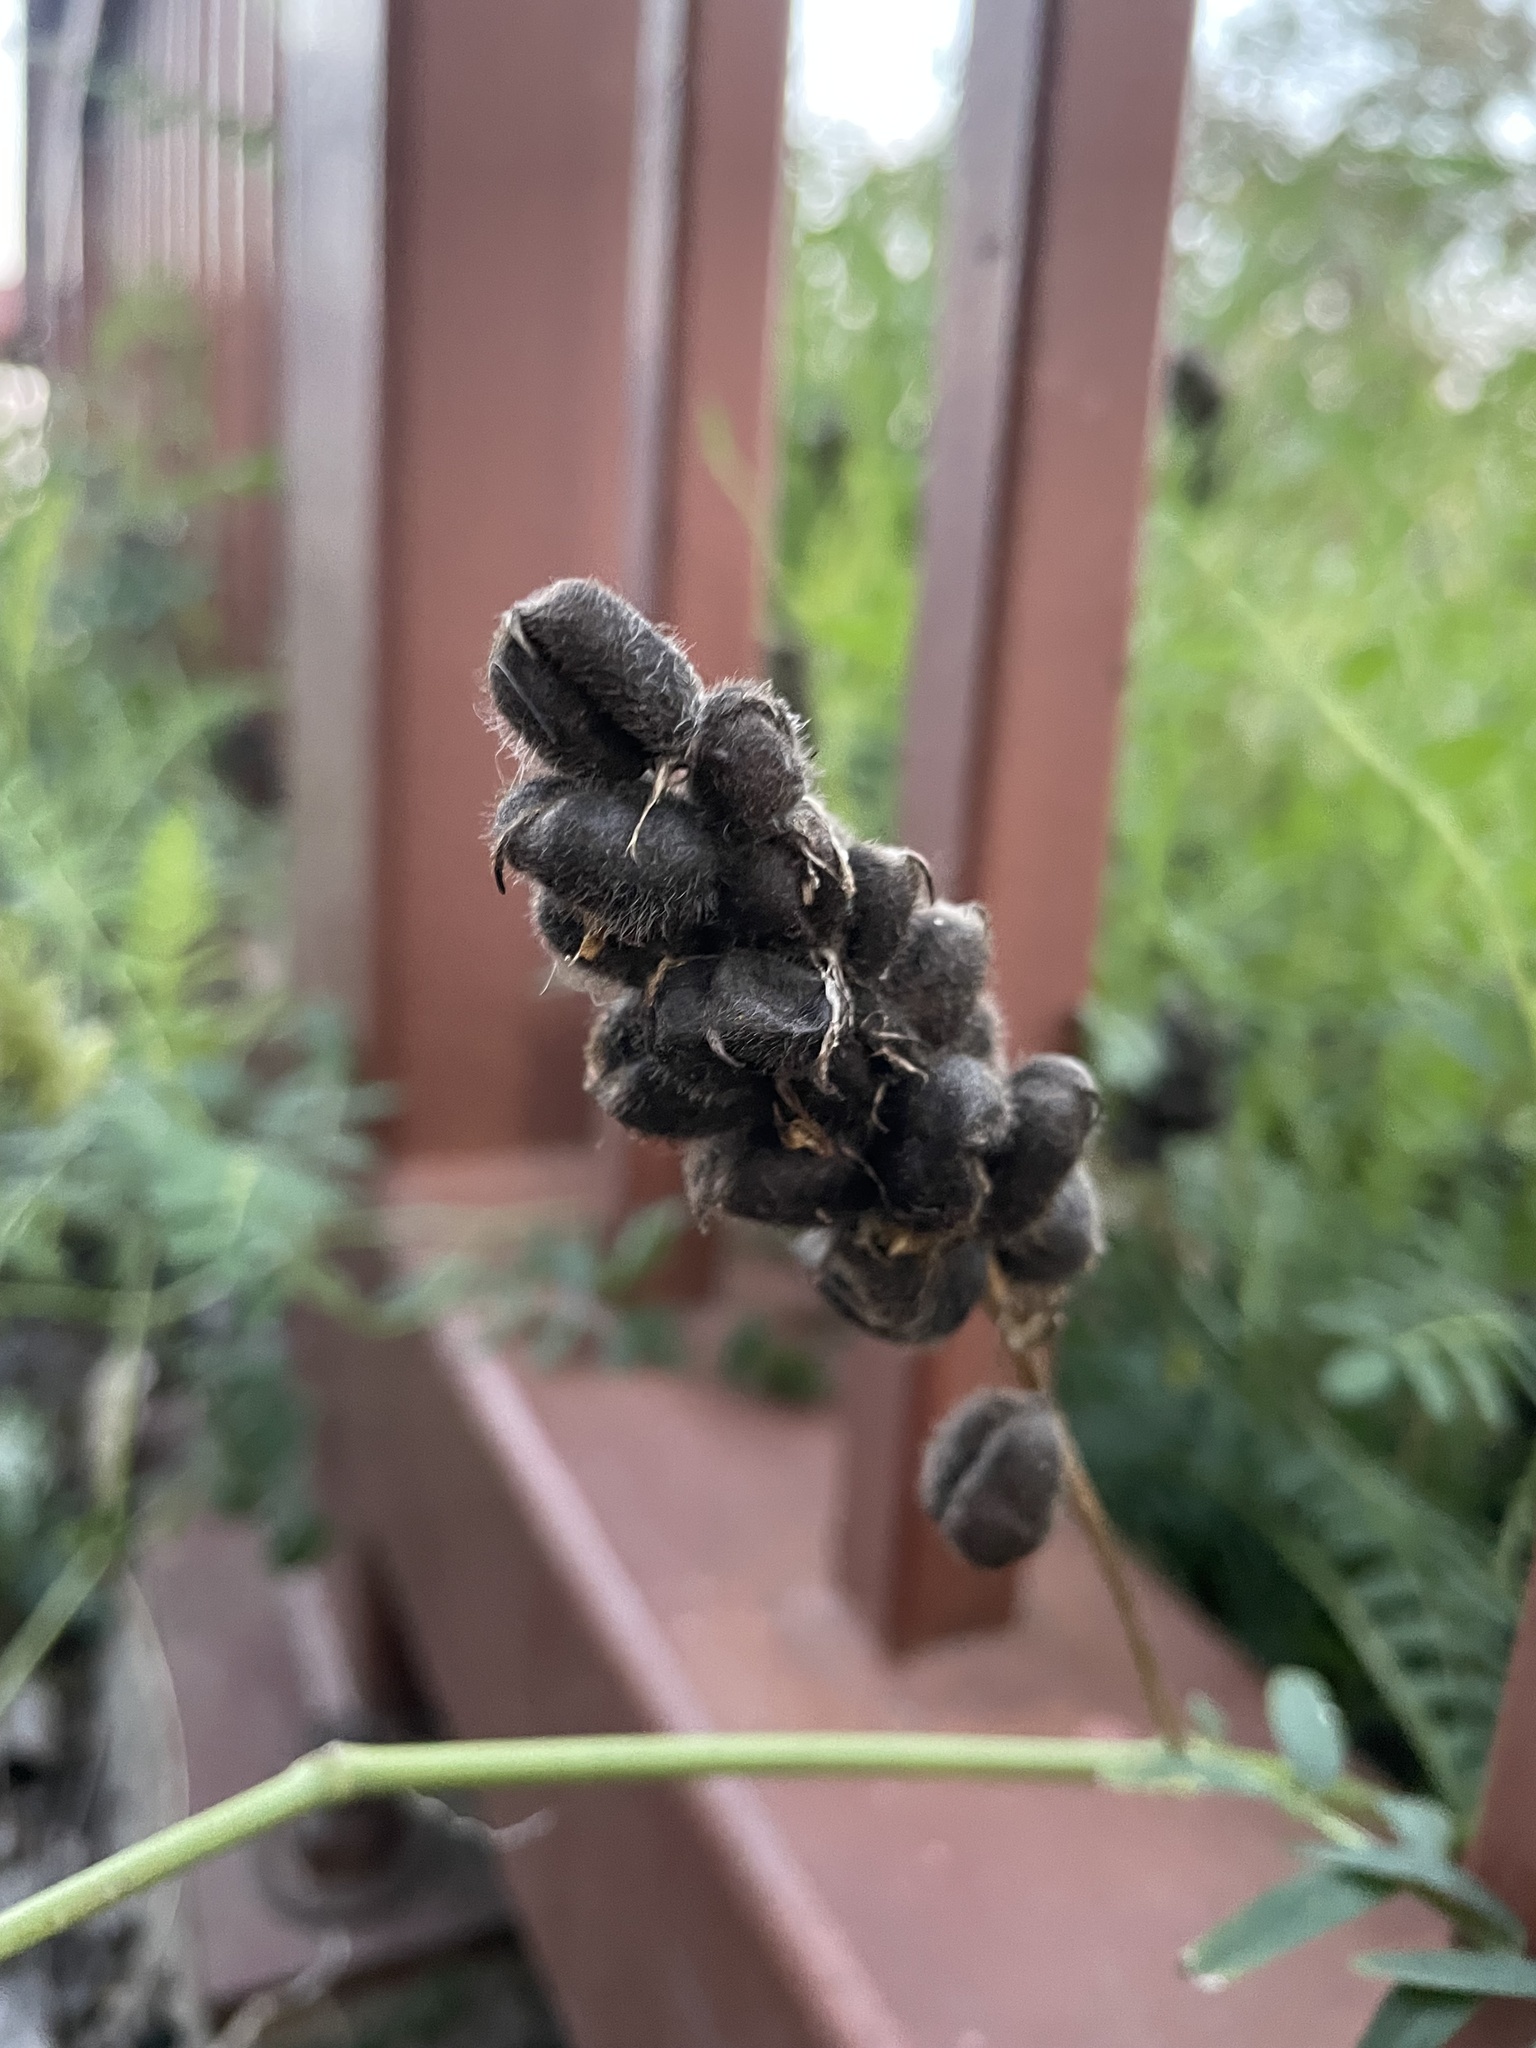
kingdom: Plantae
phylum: Tracheophyta
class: Magnoliopsida
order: Fabales
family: Fabaceae
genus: Astragalus
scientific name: Astragalus cicer
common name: Chick-pea milk-vetch
